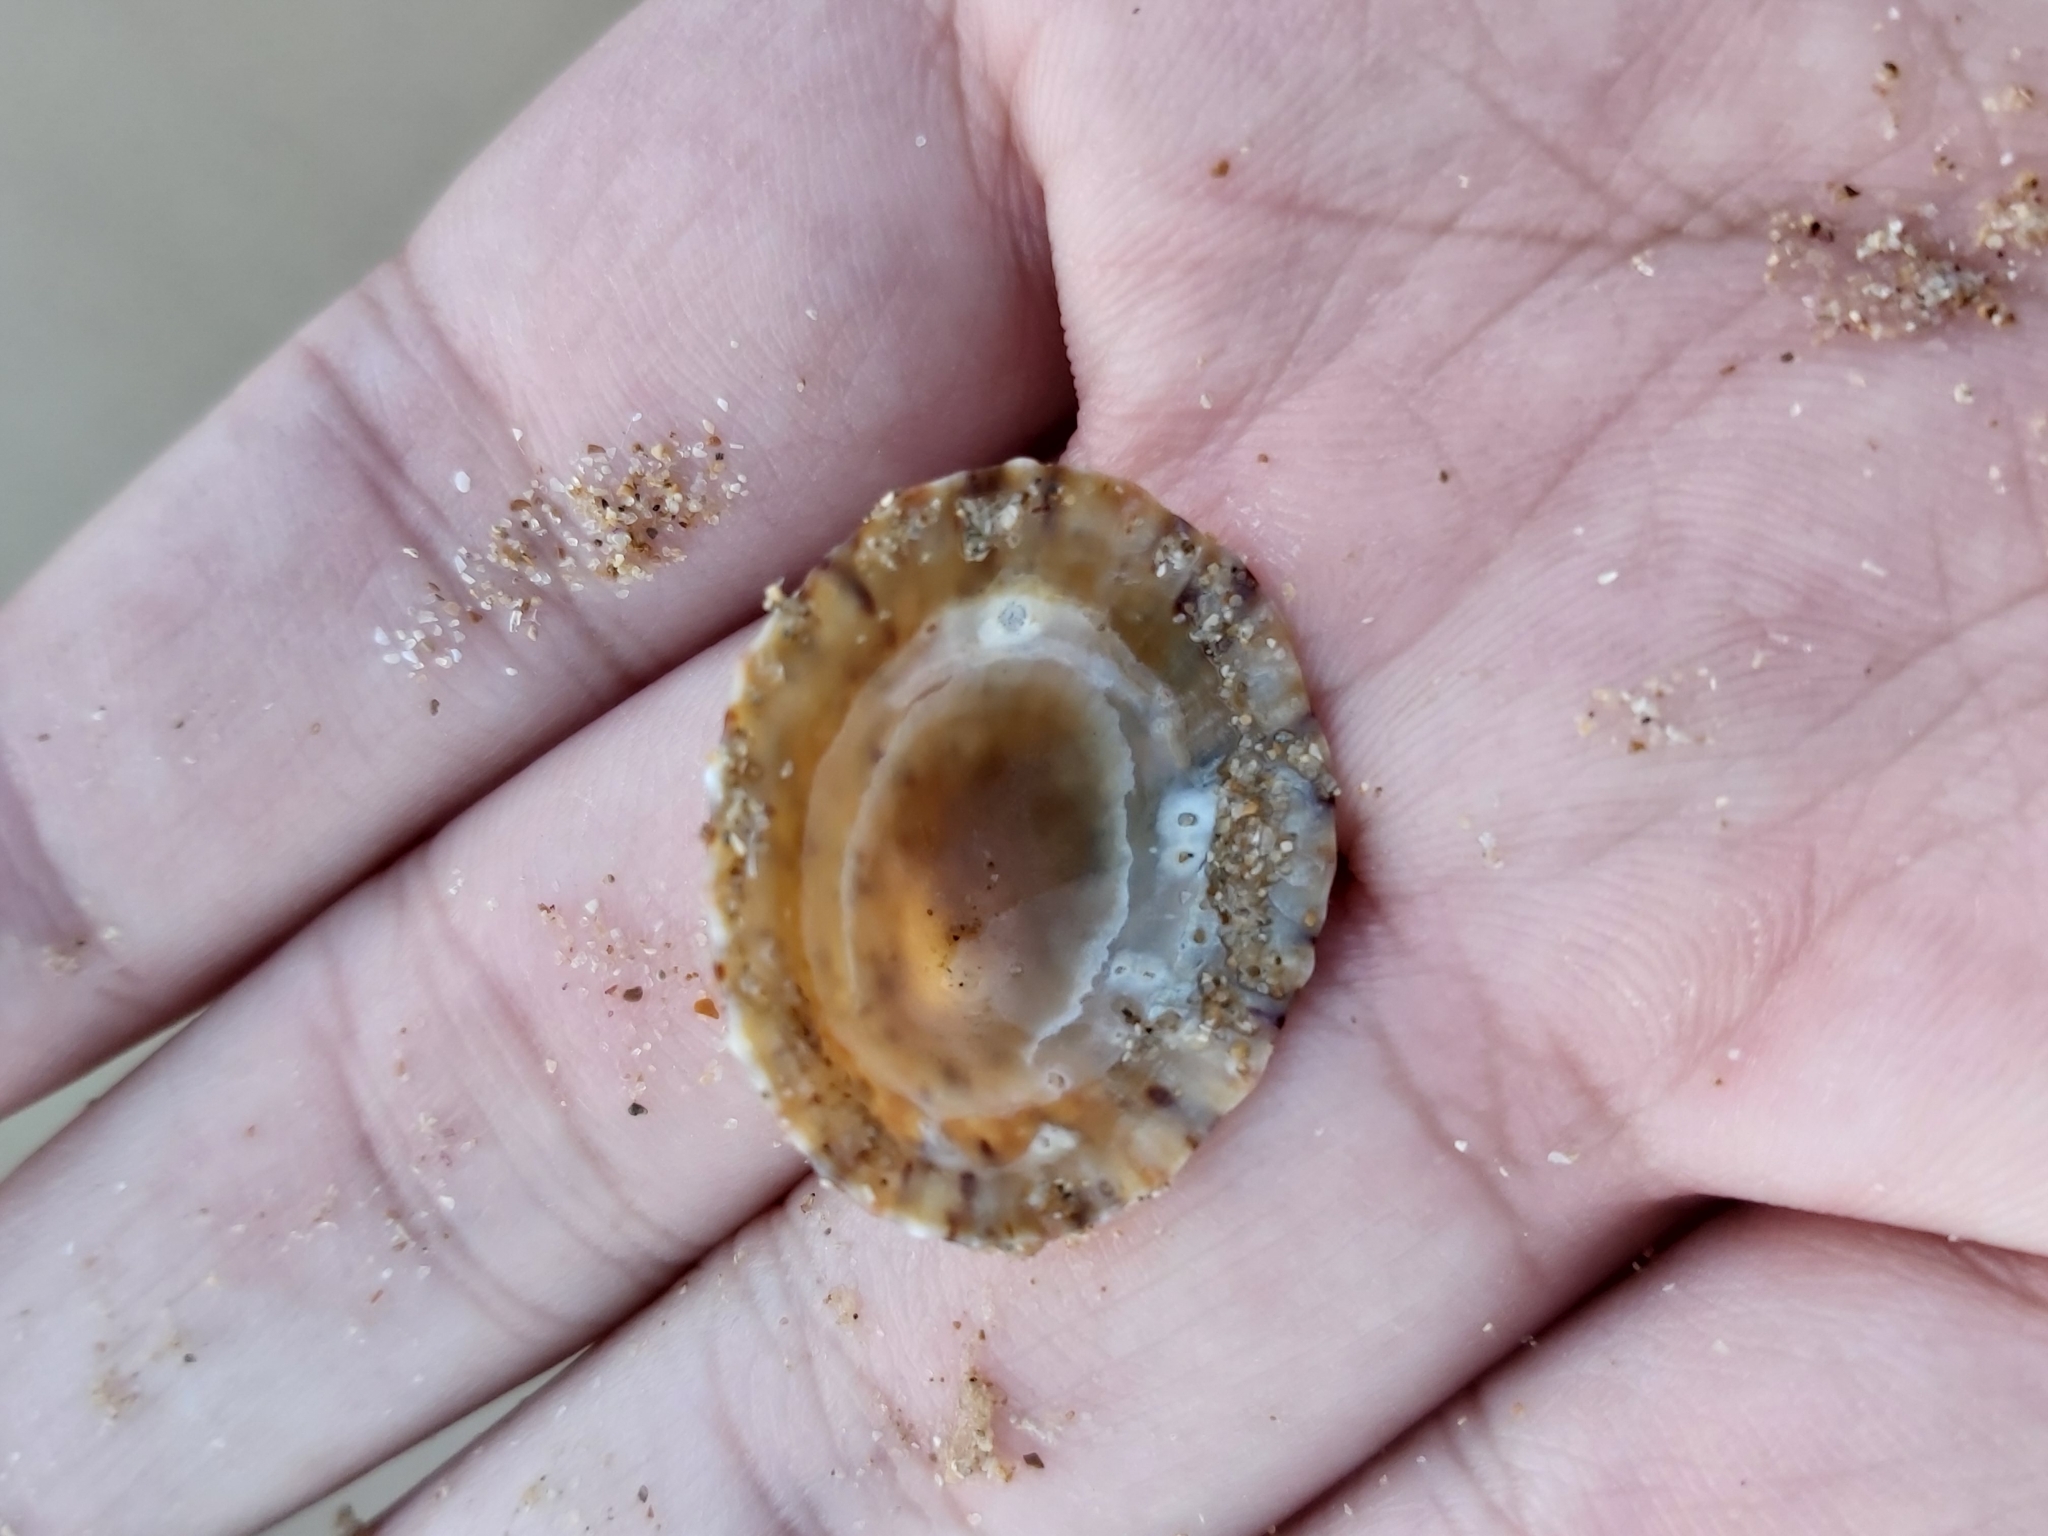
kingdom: Animalia
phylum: Mollusca
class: Gastropoda
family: Nacellidae
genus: Cellana
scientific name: Cellana tramoserica
